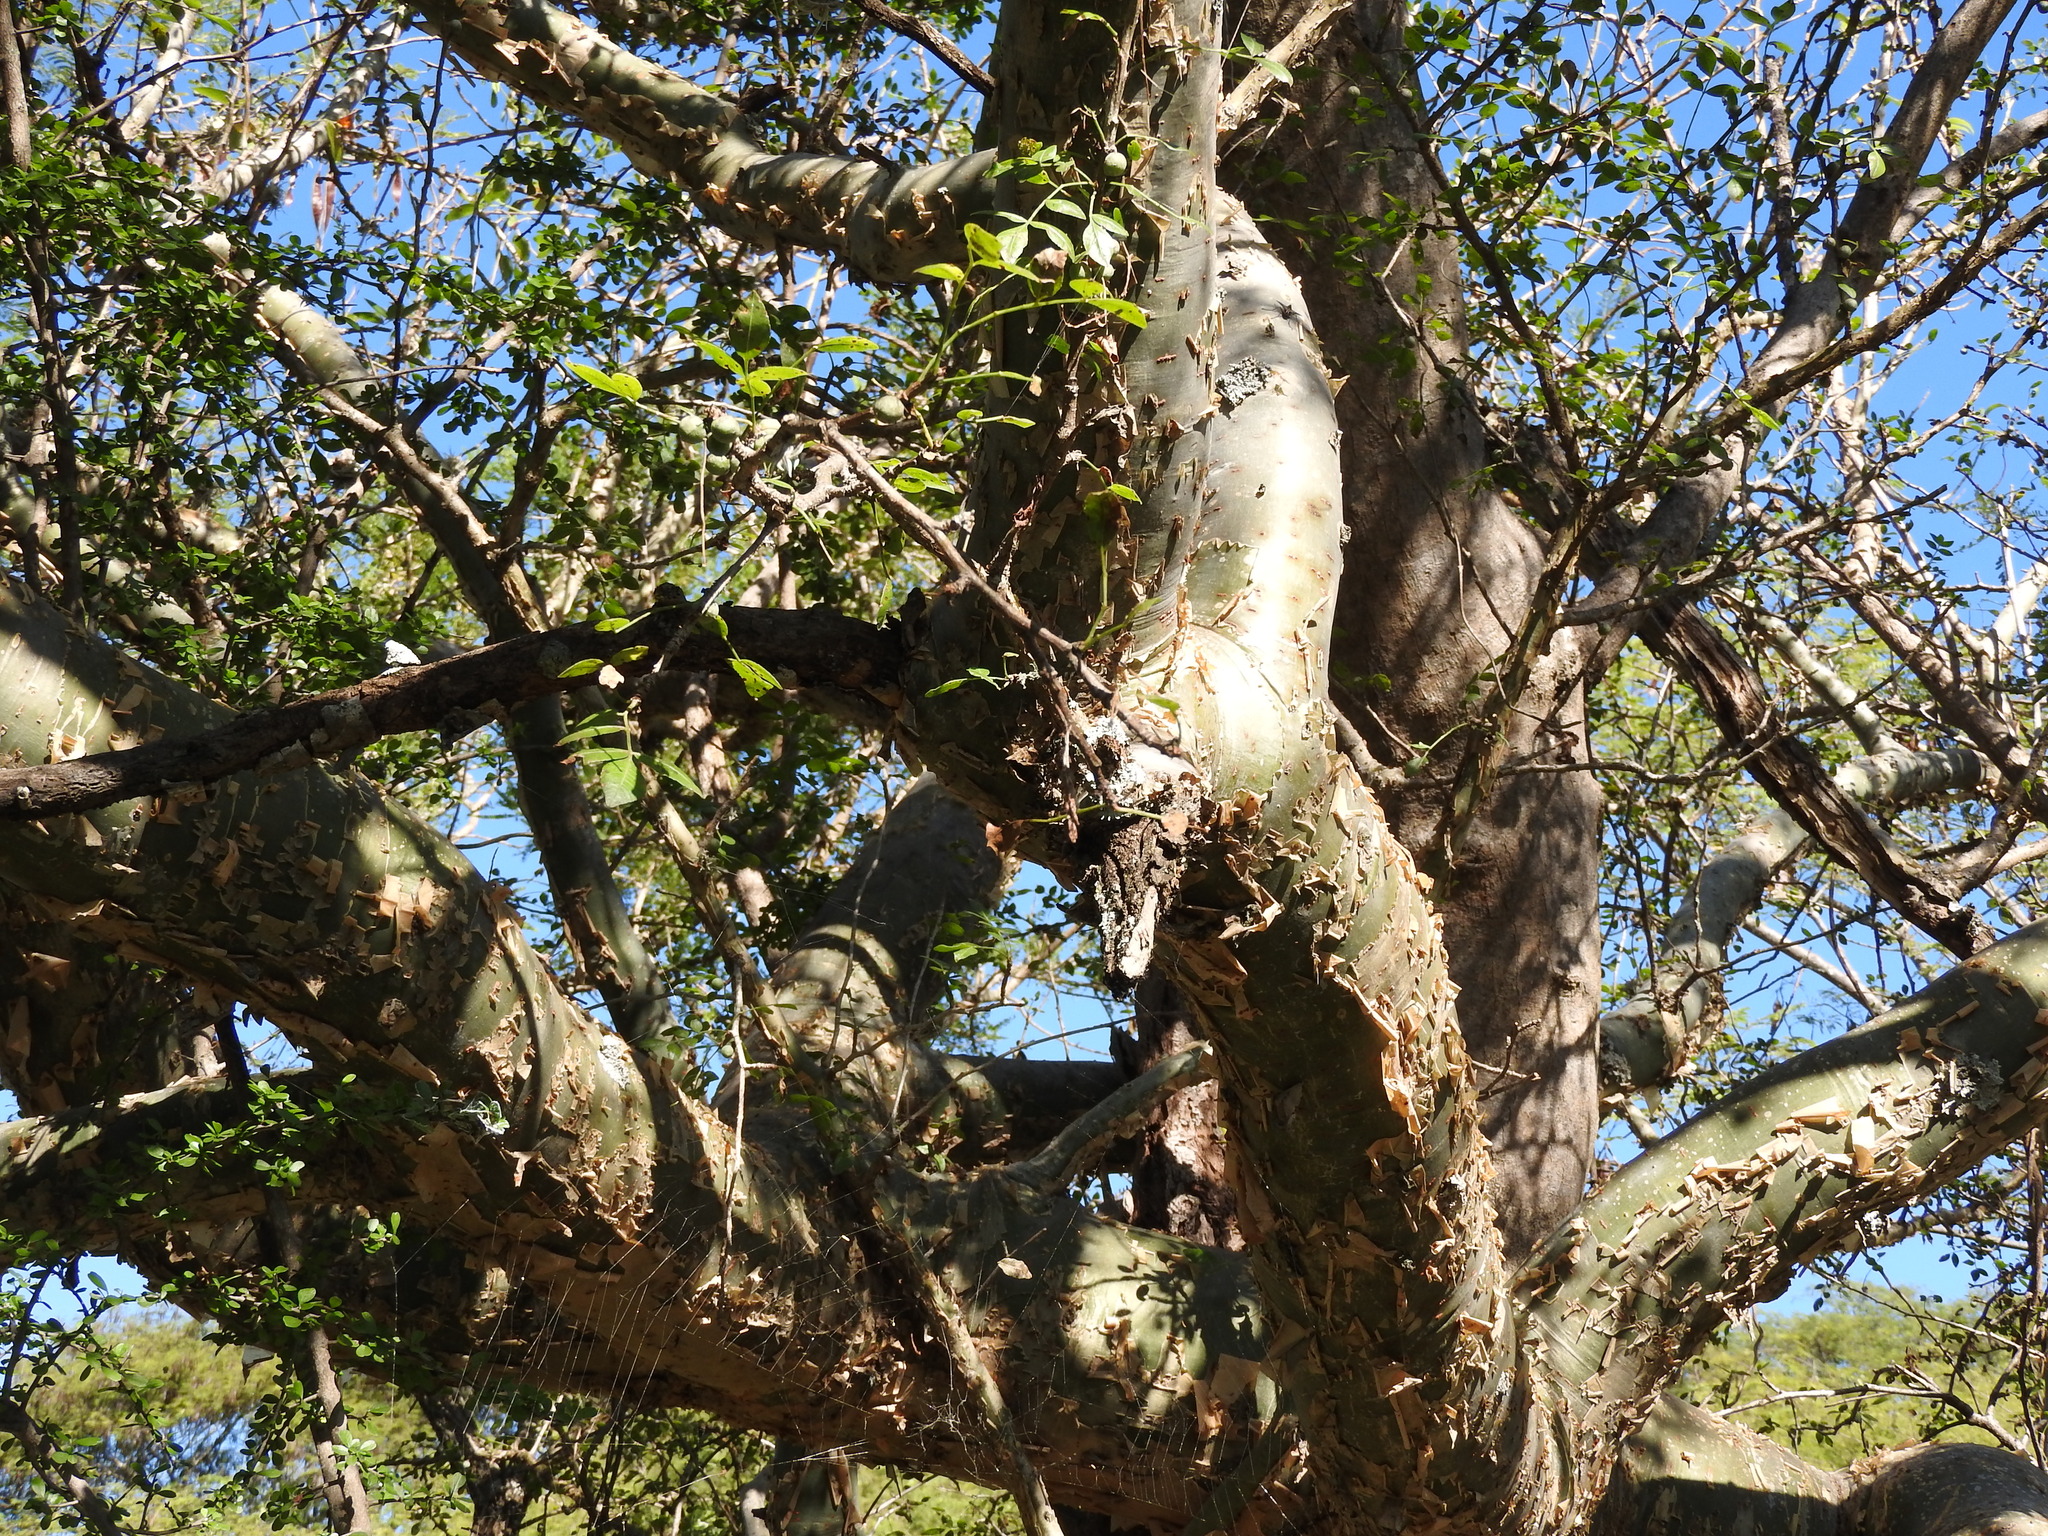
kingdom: Plantae
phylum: Tracheophyta
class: Magnoliopsida
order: Sapindales
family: Burseraceae
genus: Bursera
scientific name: Bursera fagaroides
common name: Elephant tree
